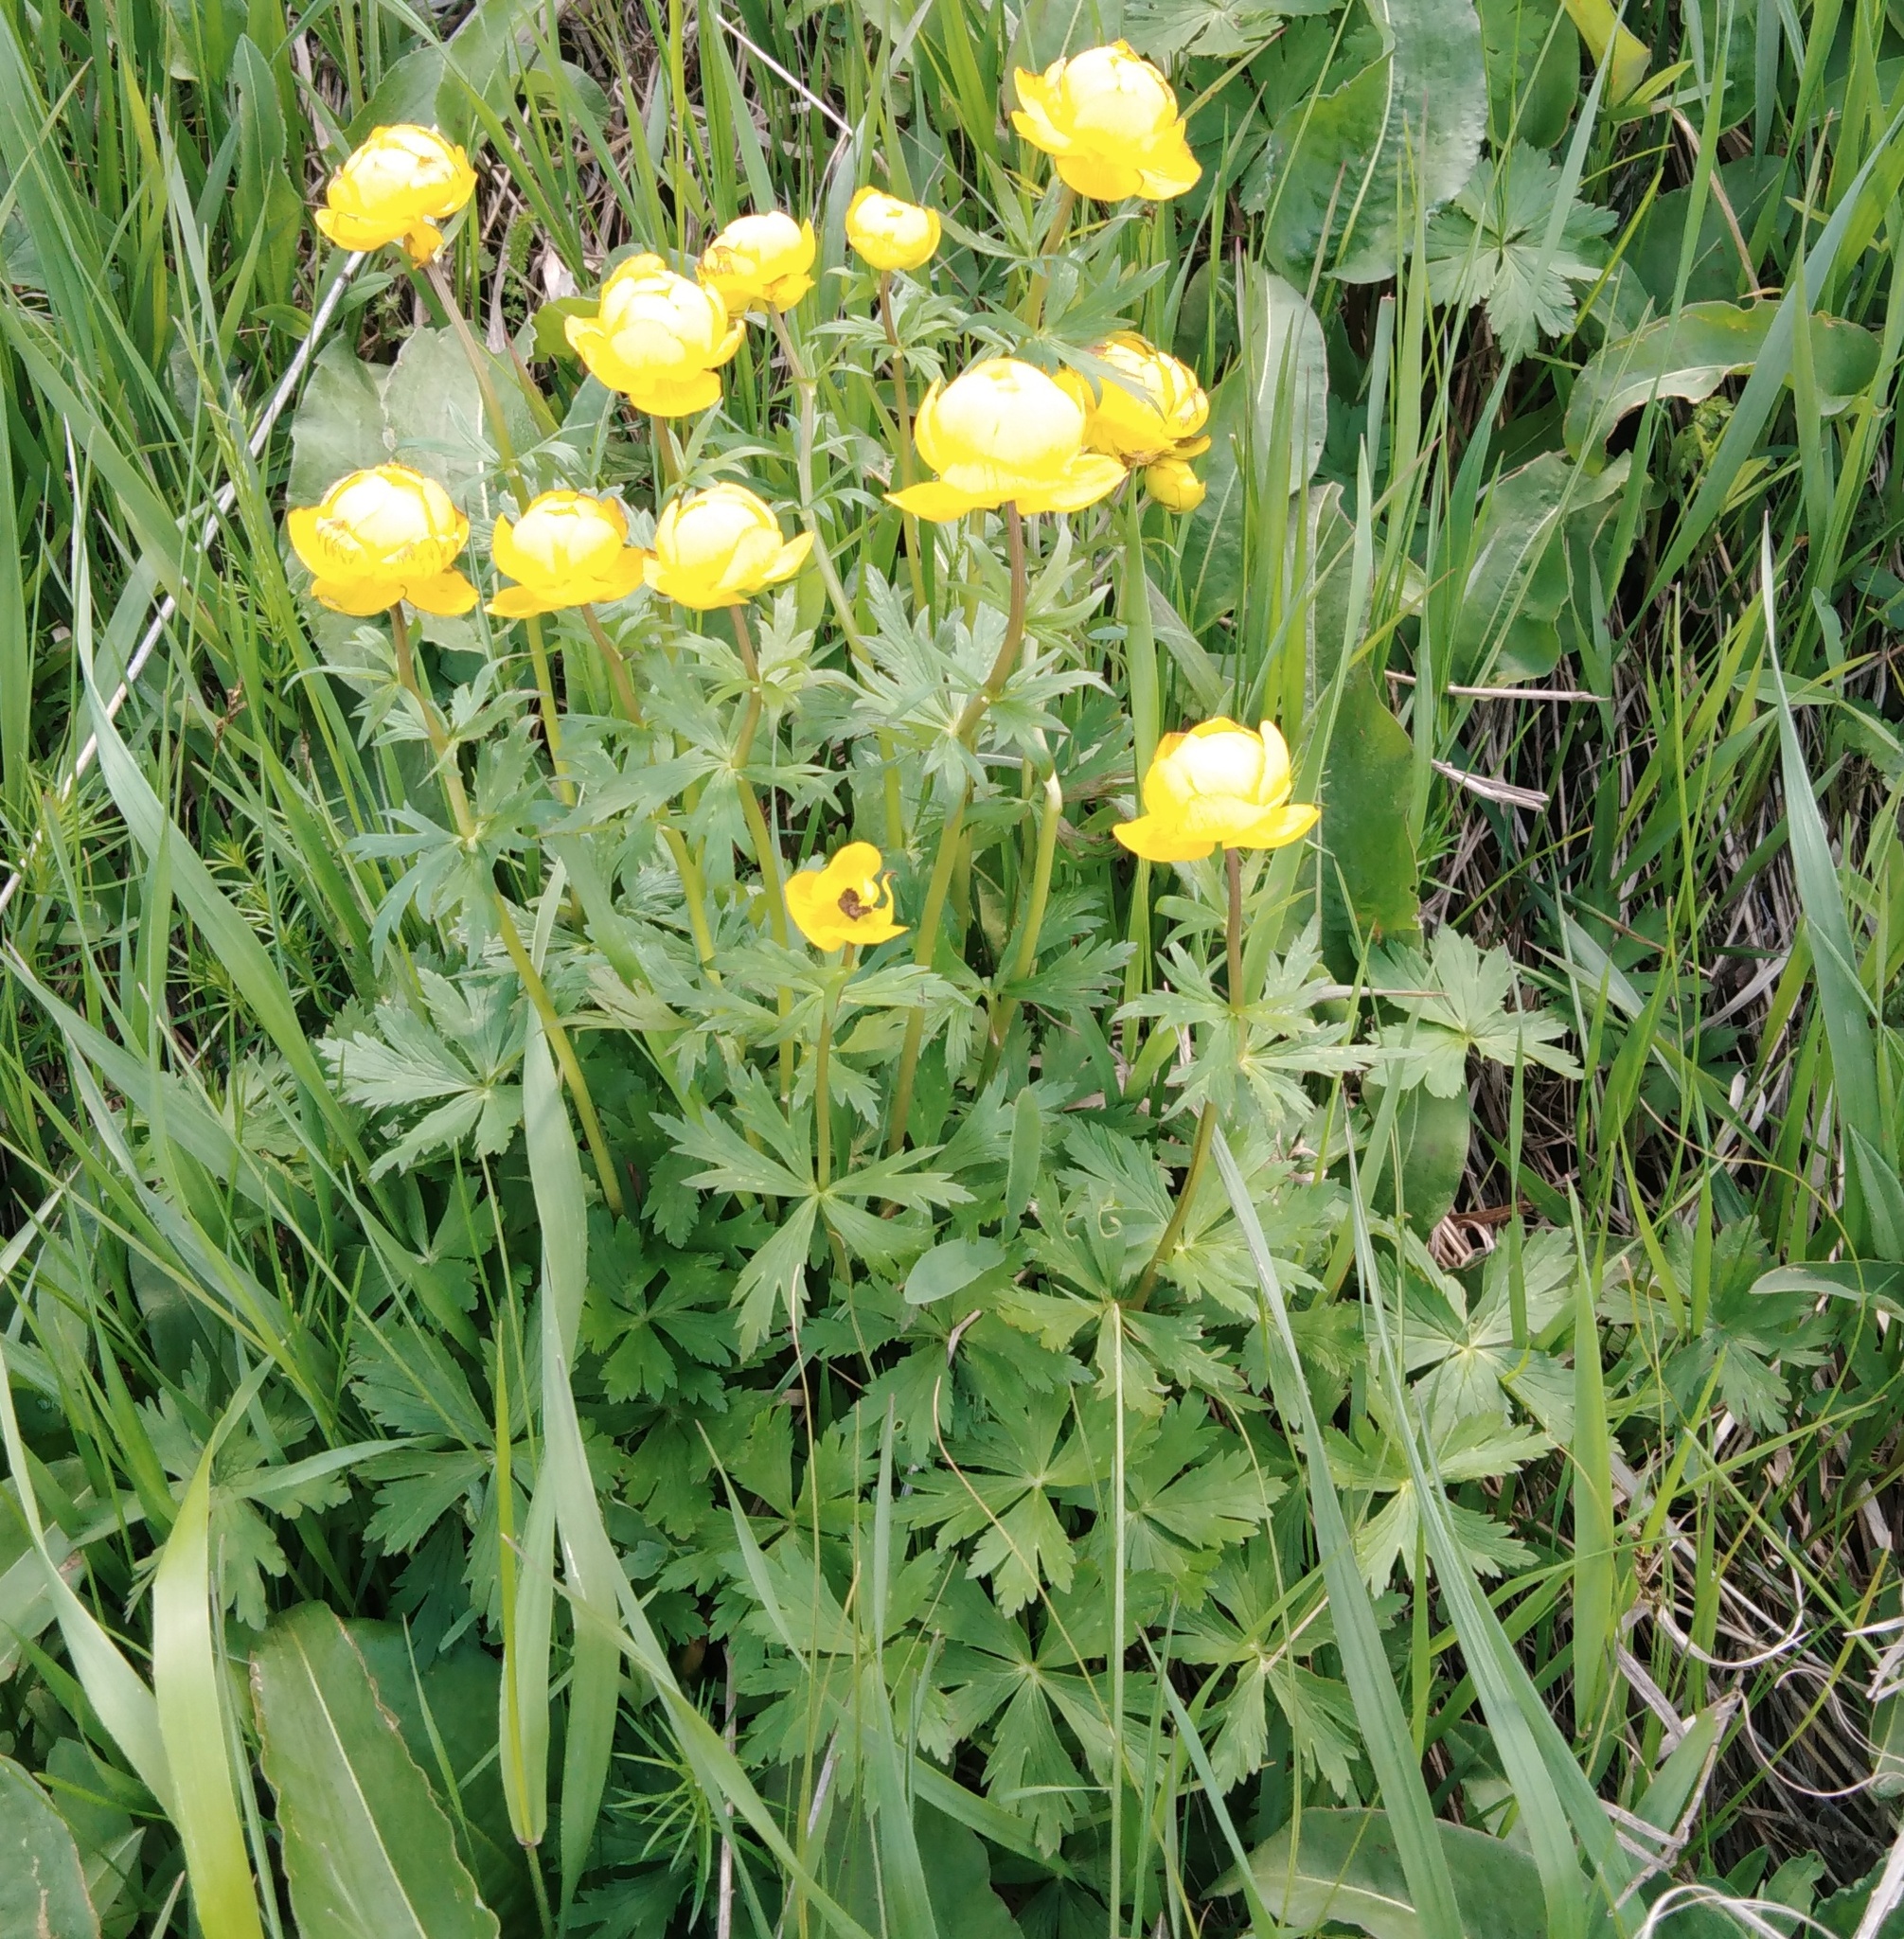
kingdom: Plantae
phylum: Tracheophyta
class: Magnoliopsida
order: Ranunculales
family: Ranunculaceae
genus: Trollius
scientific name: Trollius europaeus
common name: European globeflower
